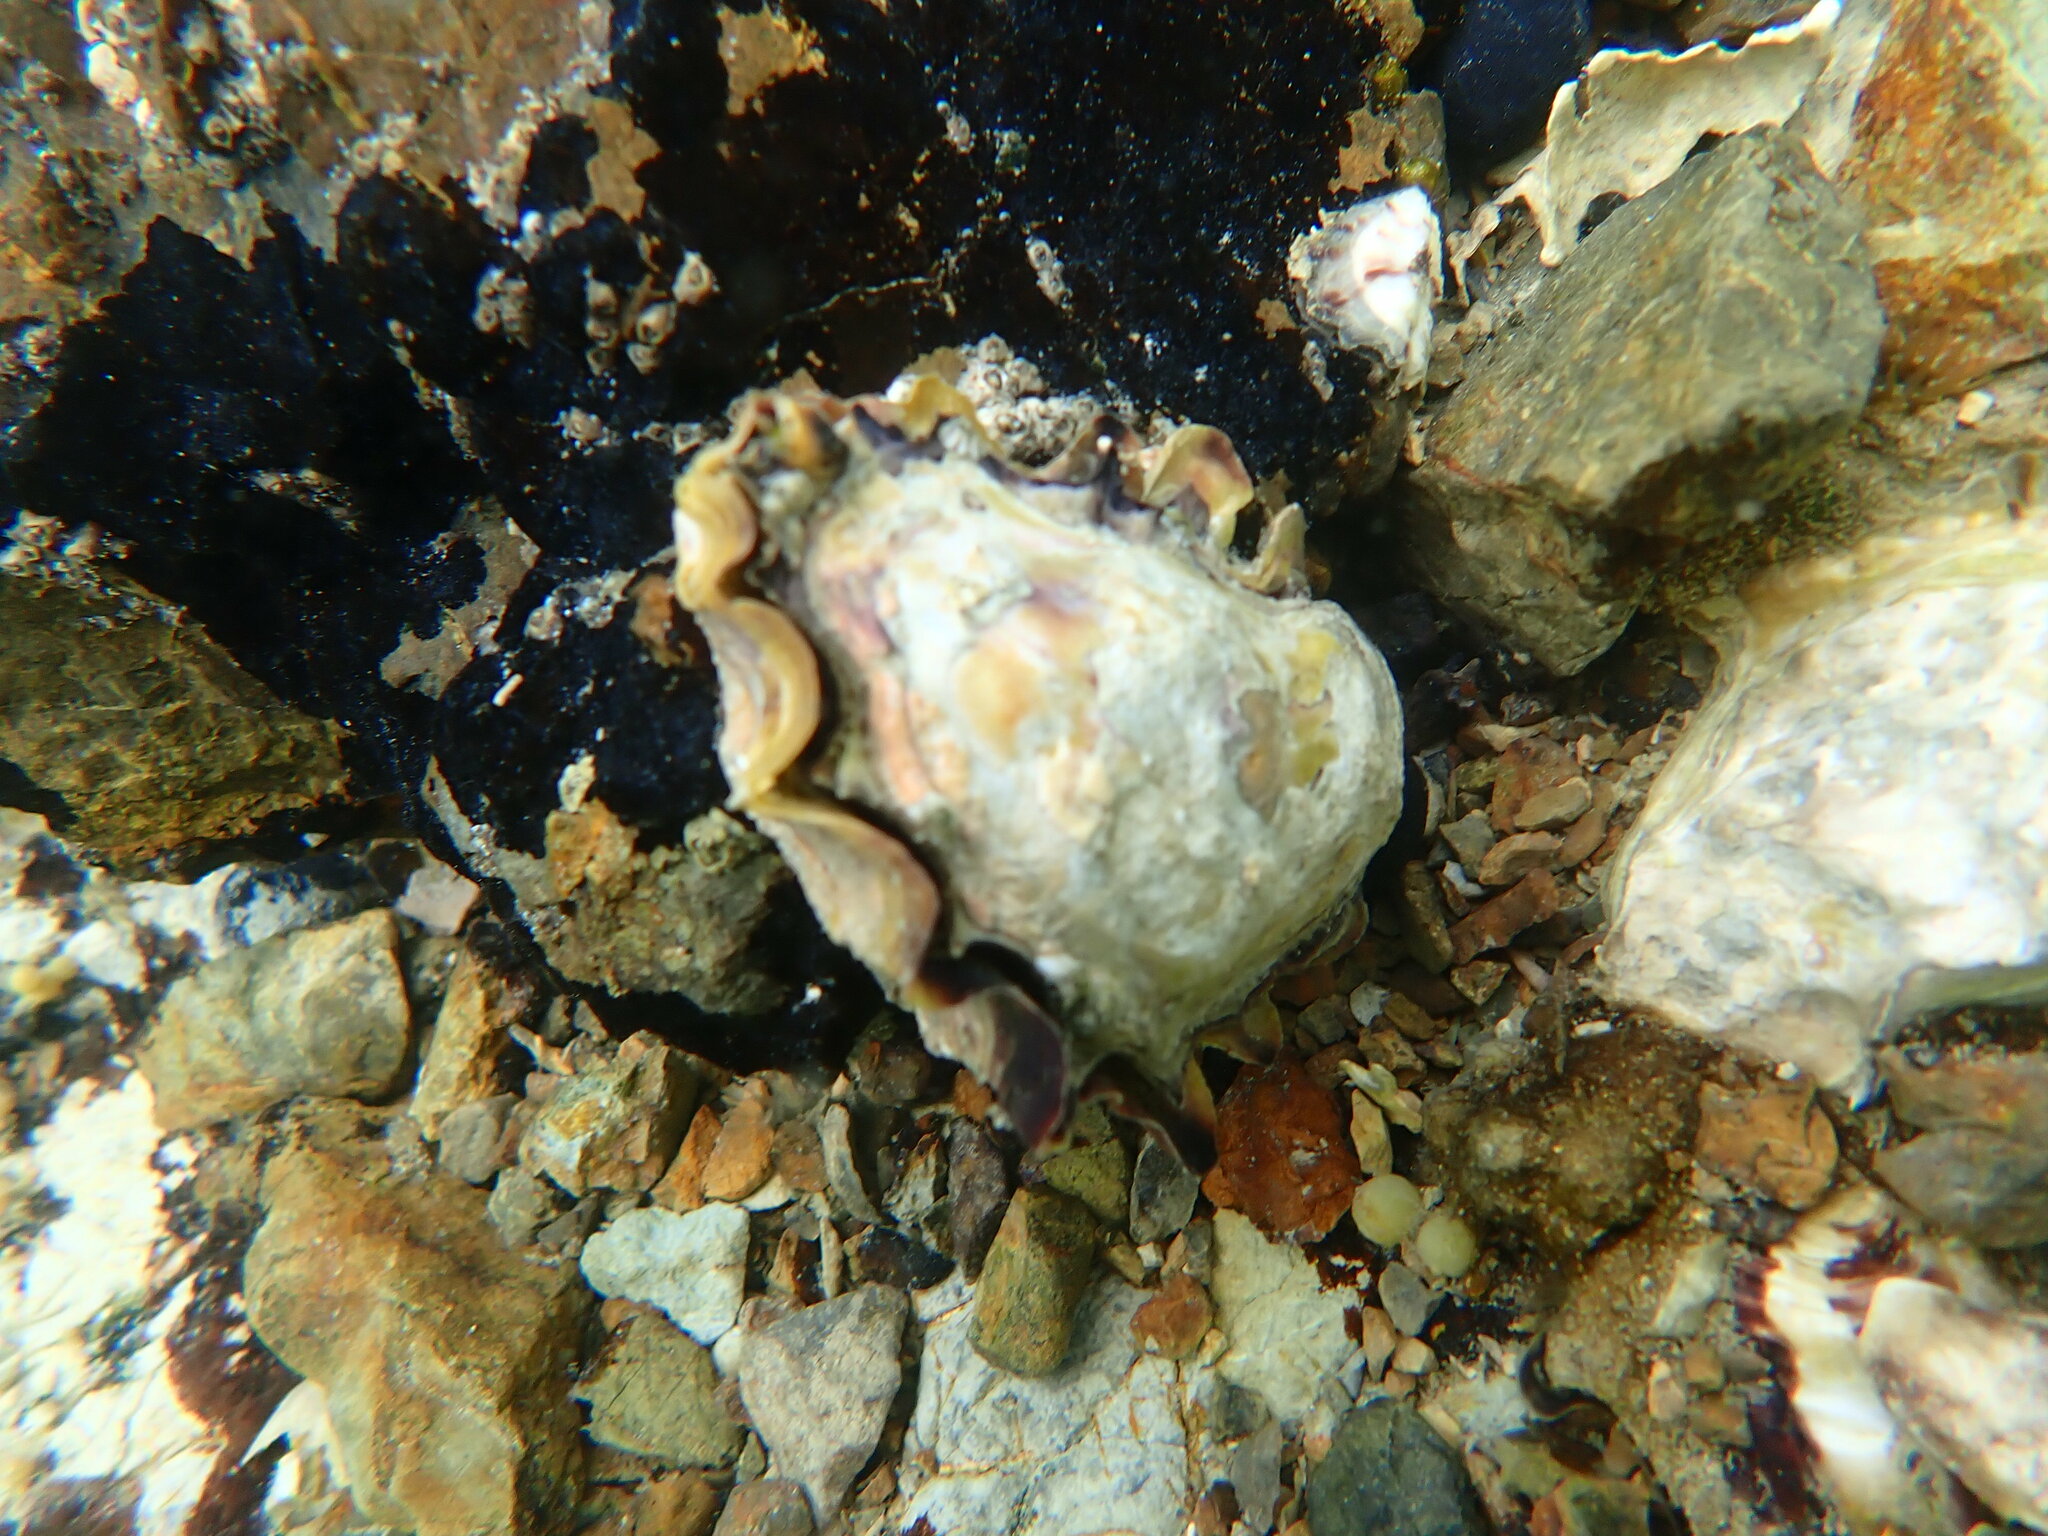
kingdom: Animalia
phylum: Mollusca
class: Bivalvia
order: Ostreida
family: Ostreidae
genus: Saccostrea
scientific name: Saccostrea glomerata
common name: Sydney cupped oyster
